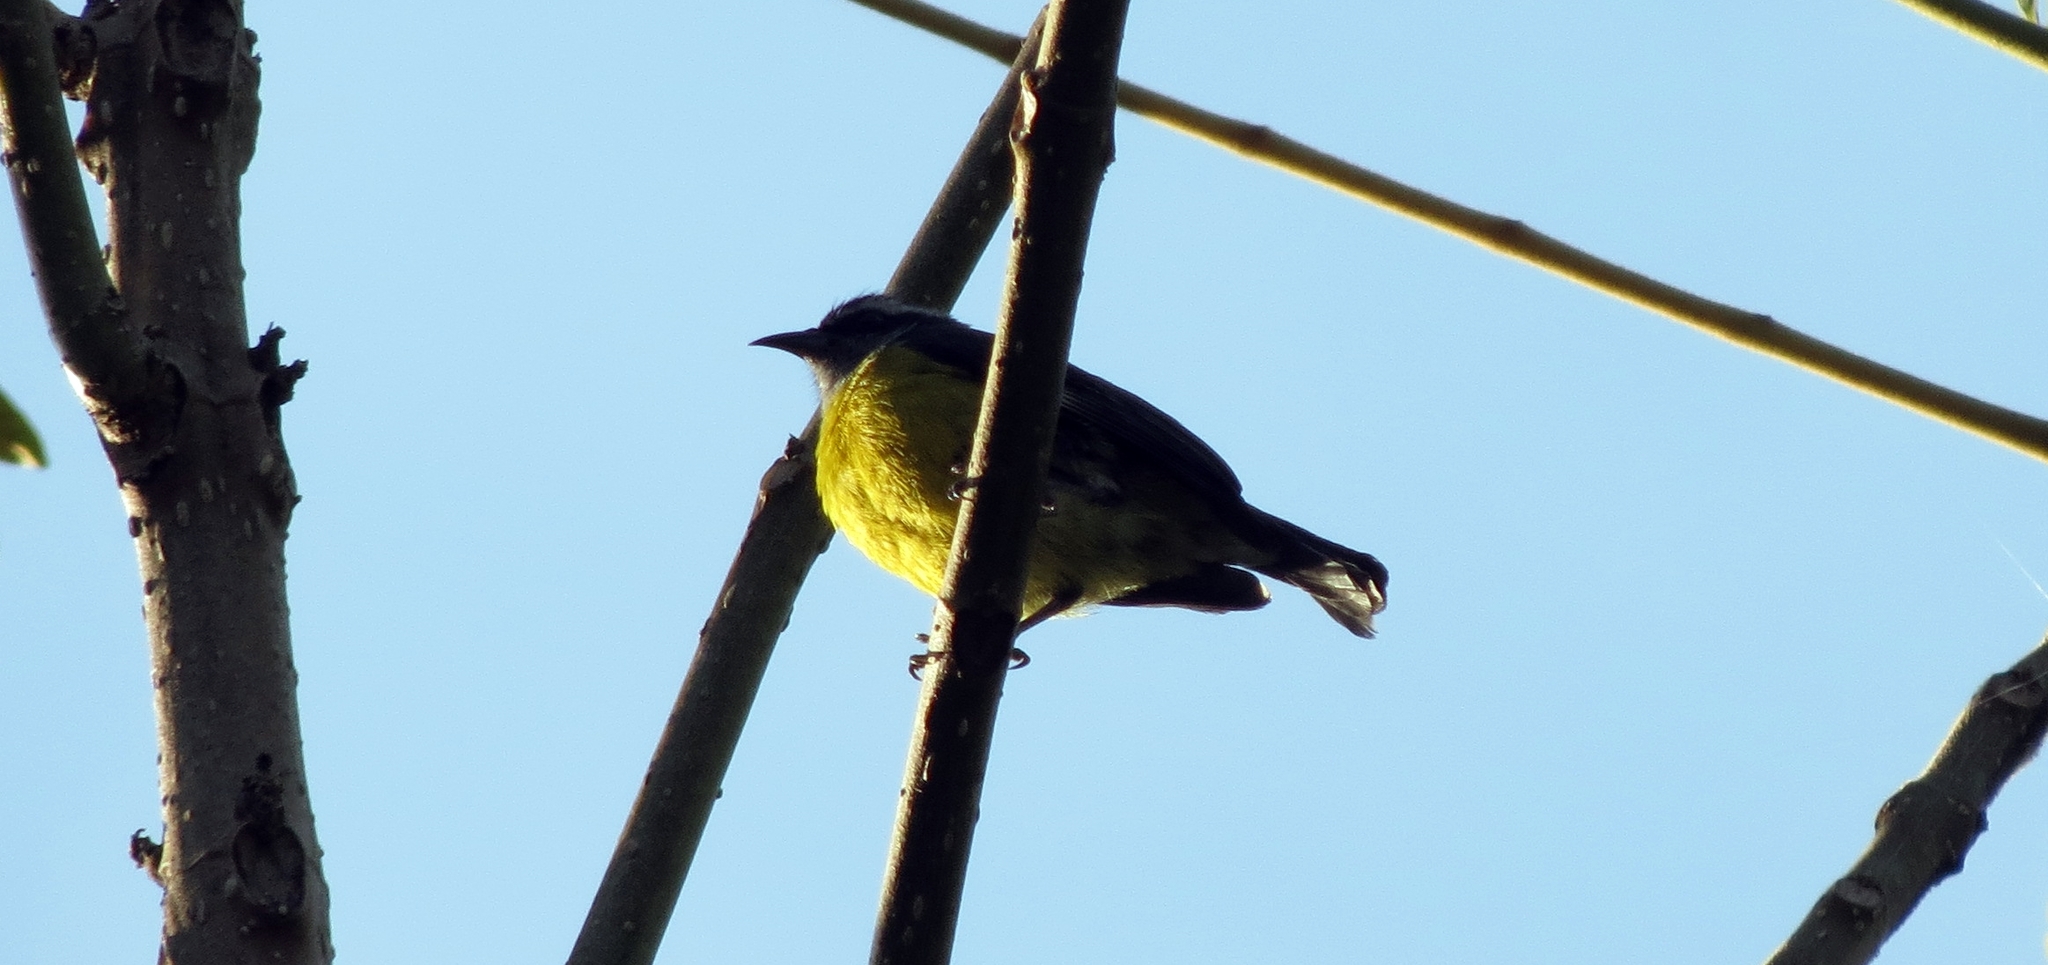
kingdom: Animalia
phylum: Chordata
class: Aves
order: Passeriformes
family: Thraupidae
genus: Coereba
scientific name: Coereba flaveola
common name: Bananaquit
